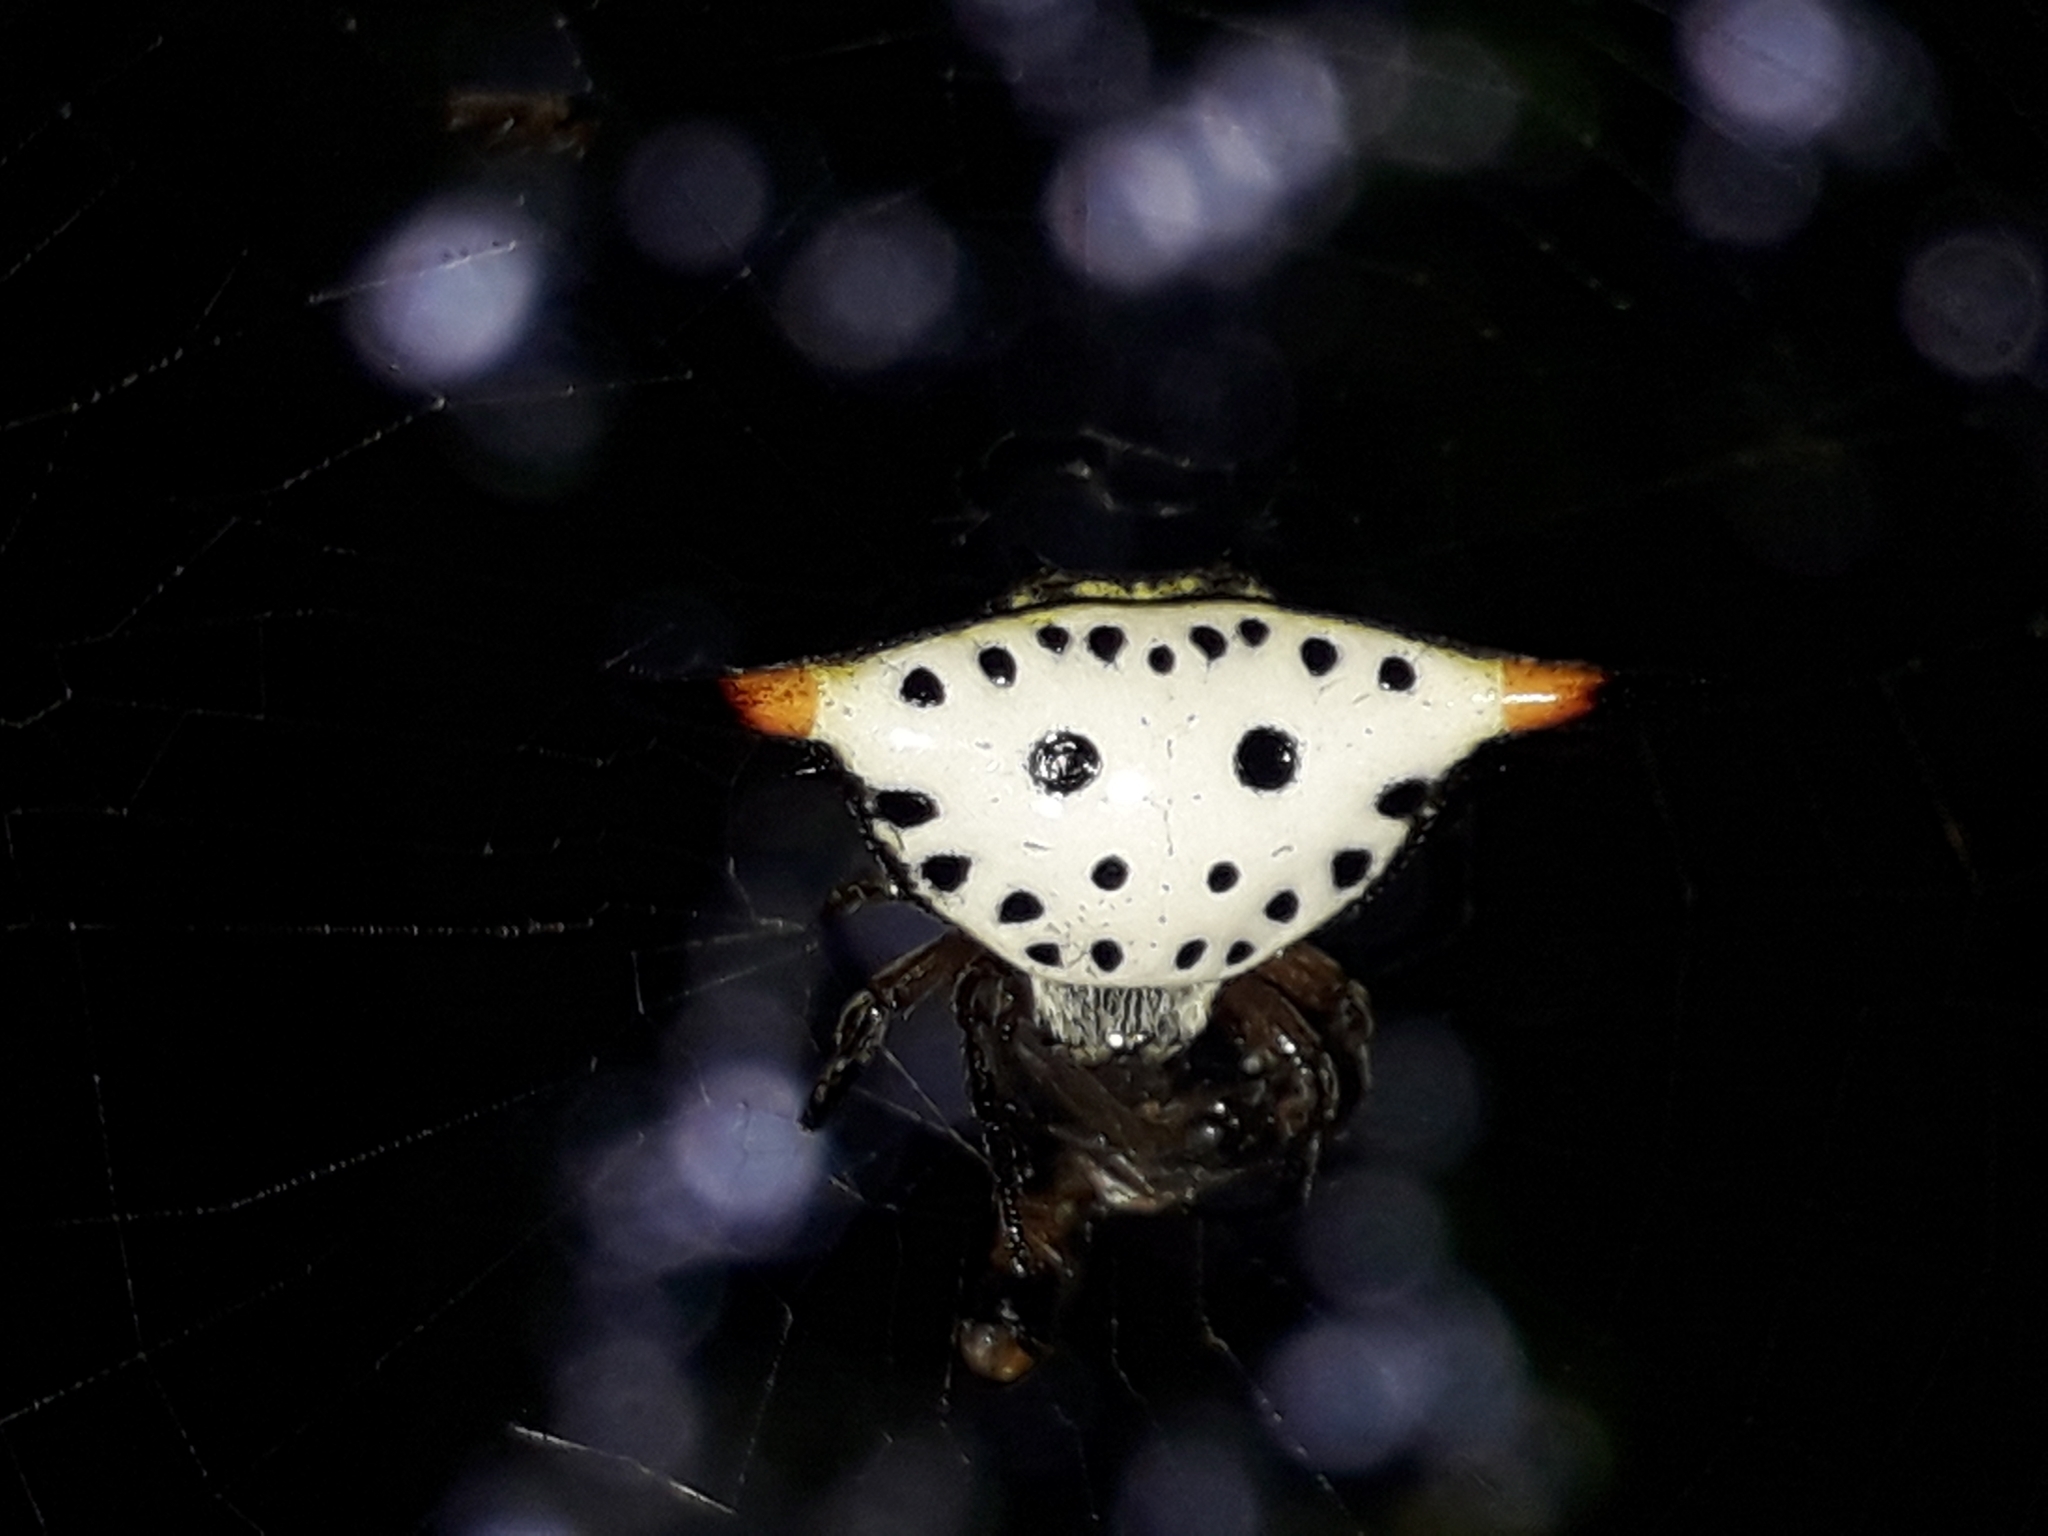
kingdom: Animalia
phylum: Arthropoda
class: Arachnida
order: Araneae
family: Araneidae
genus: Togacantha
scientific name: Togacantha nordviei
